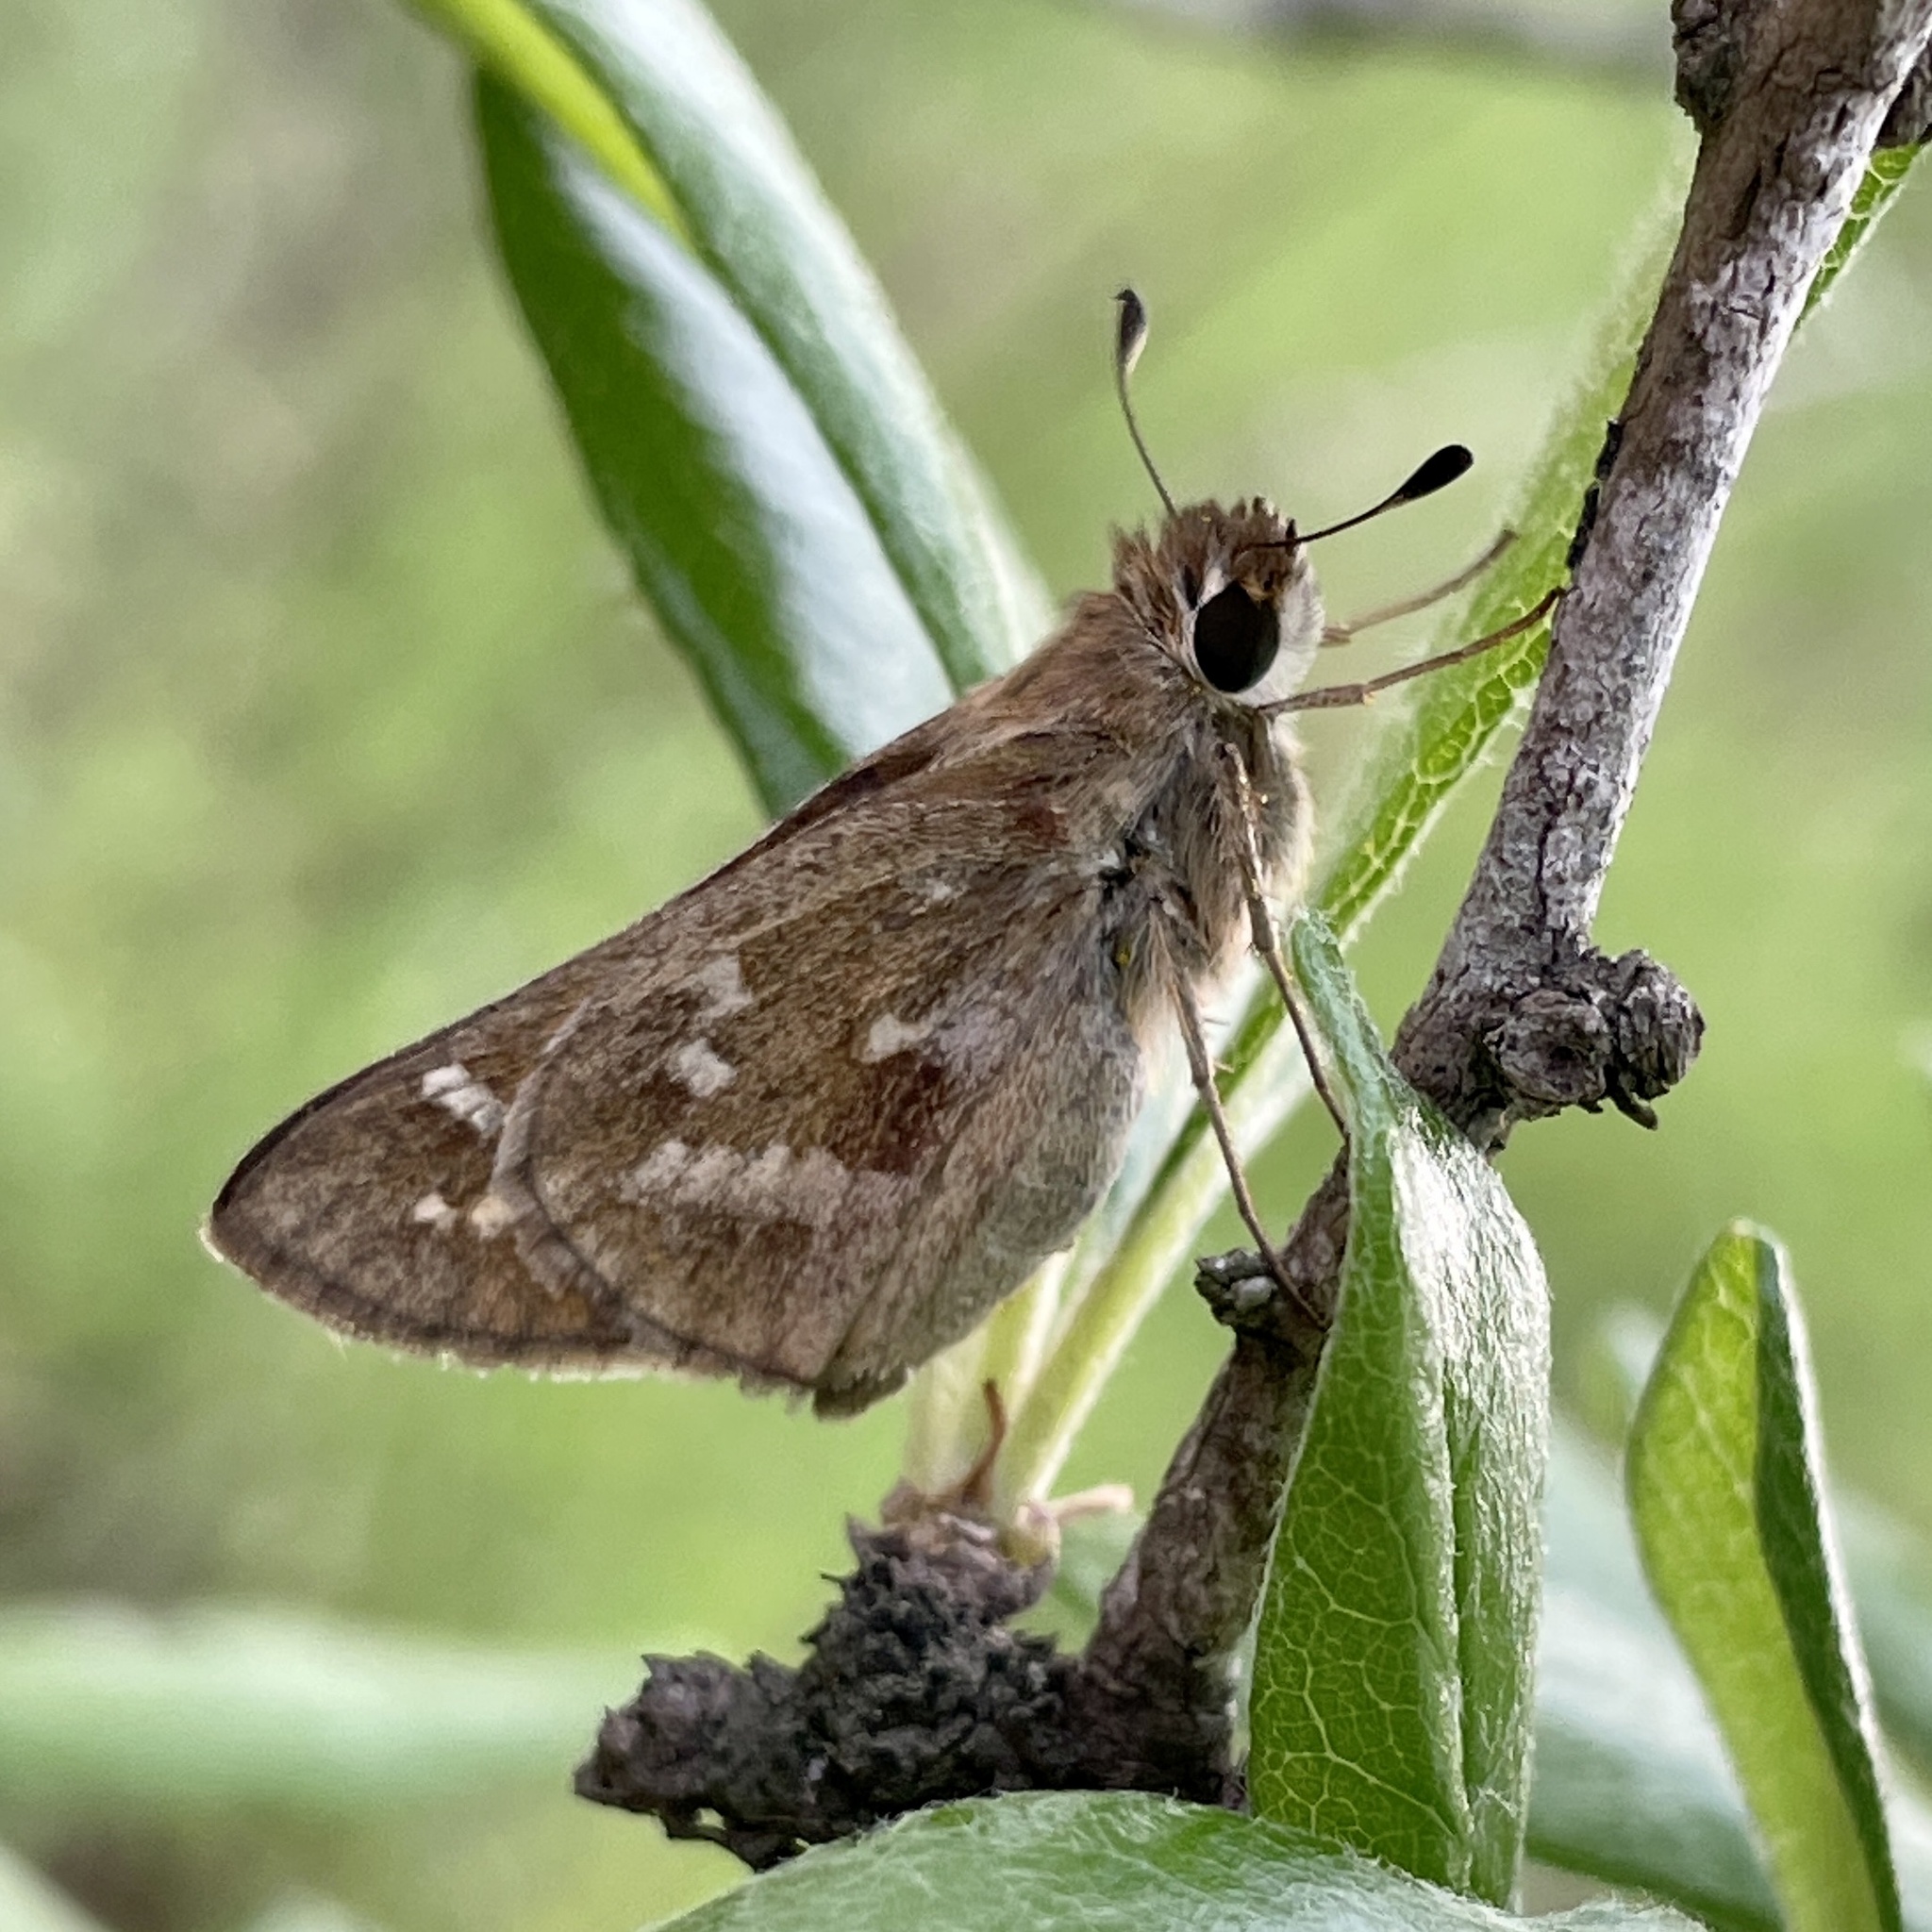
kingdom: Animalia
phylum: Arthropoda
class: Insecta
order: Lepidoptera
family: Hesperiidae
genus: Atalopedes
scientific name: Atalopedes
